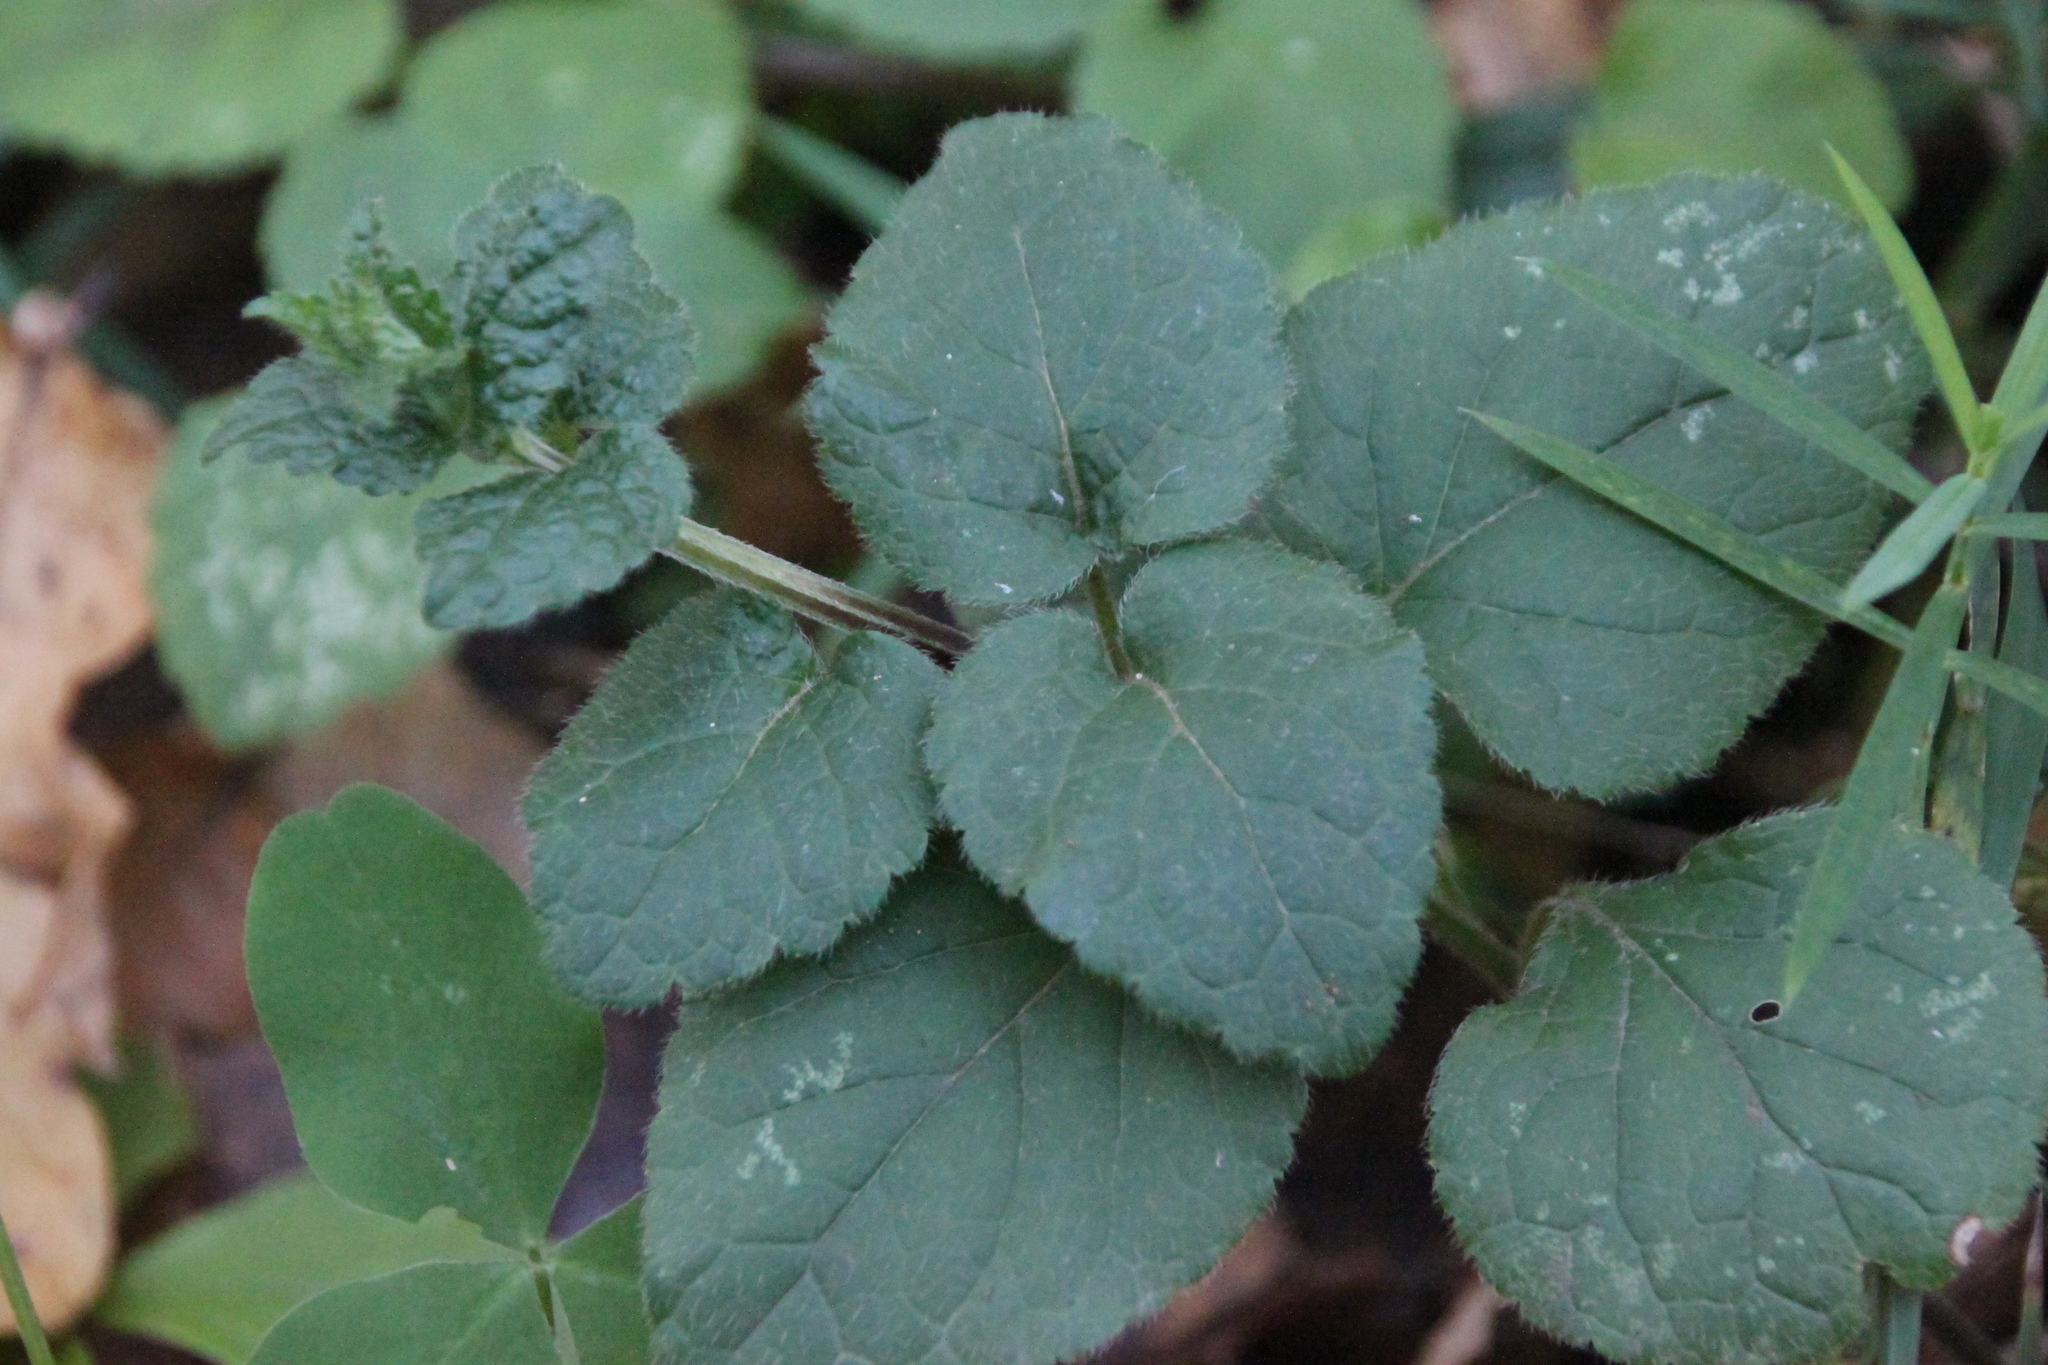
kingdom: Plantae
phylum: Tracheophyta
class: Magnoliopsida
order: Lamiales
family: Lamiaceae
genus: Lamium
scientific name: Lamium galeobdolon
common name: Yellow archangel
